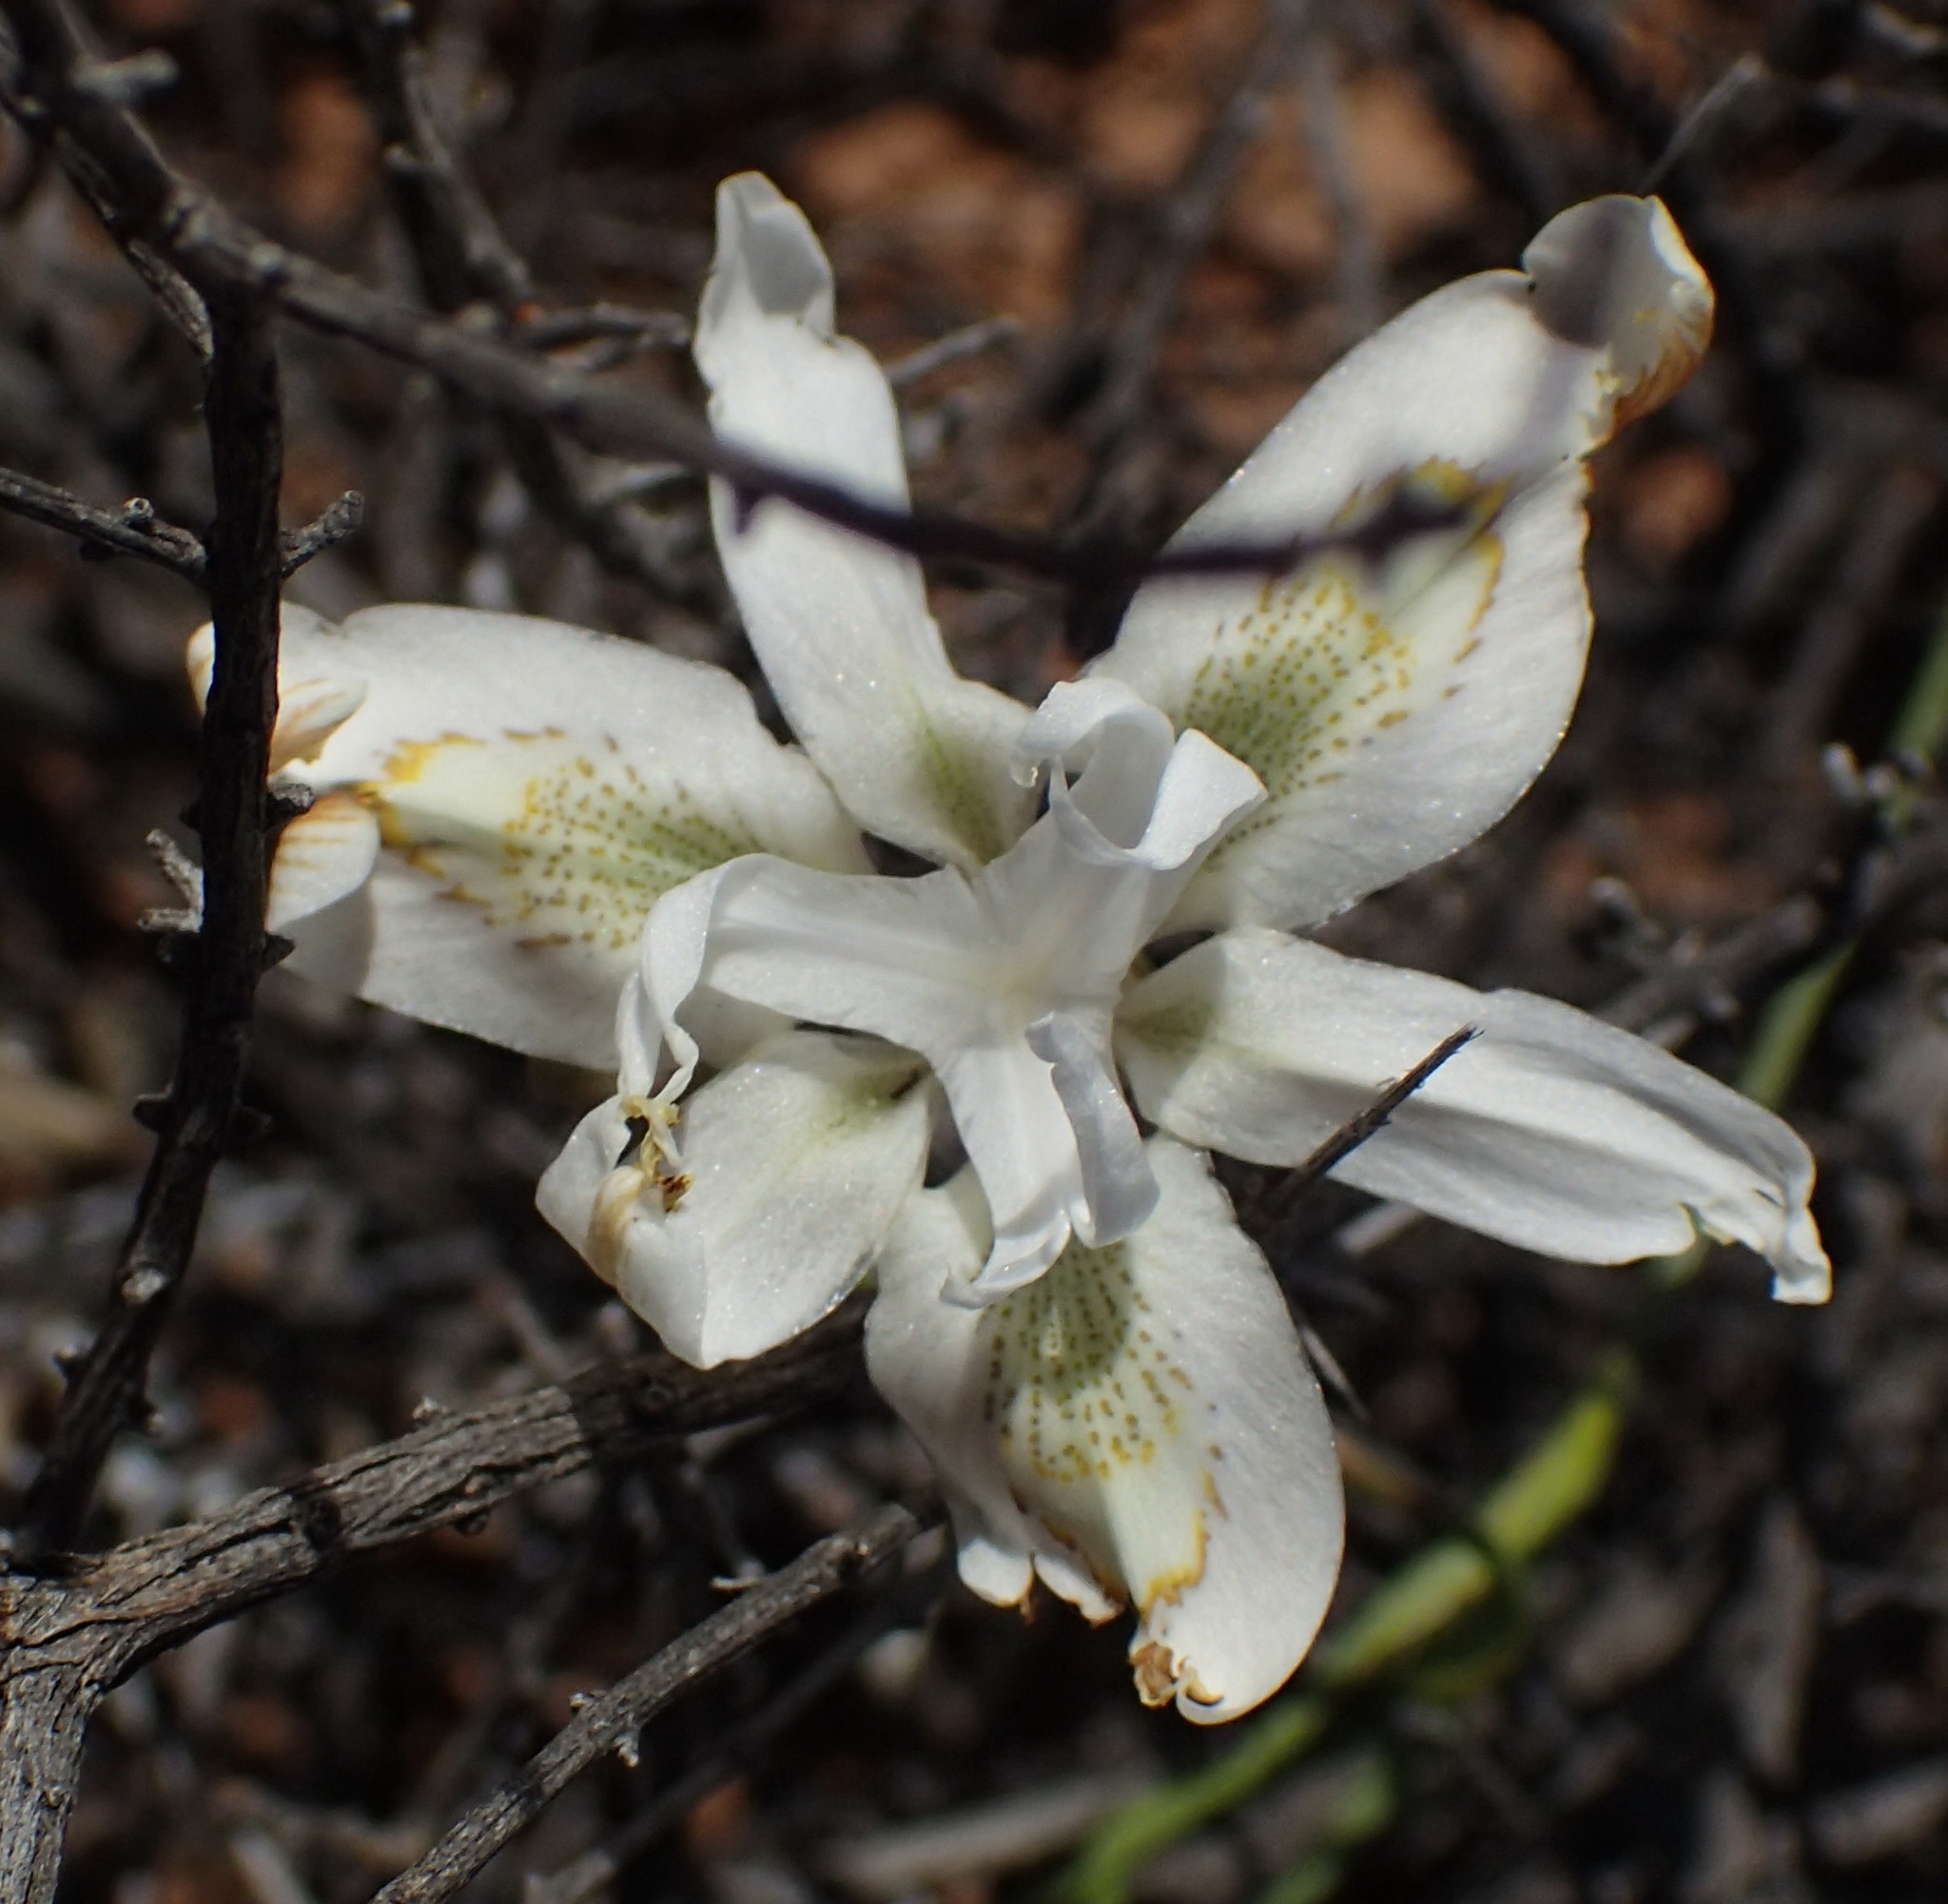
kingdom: Plantae
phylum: Tracheophyta
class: Liliopsida
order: Asparagales
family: Iridaceae
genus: Moraea
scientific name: Moraea filicaulis
